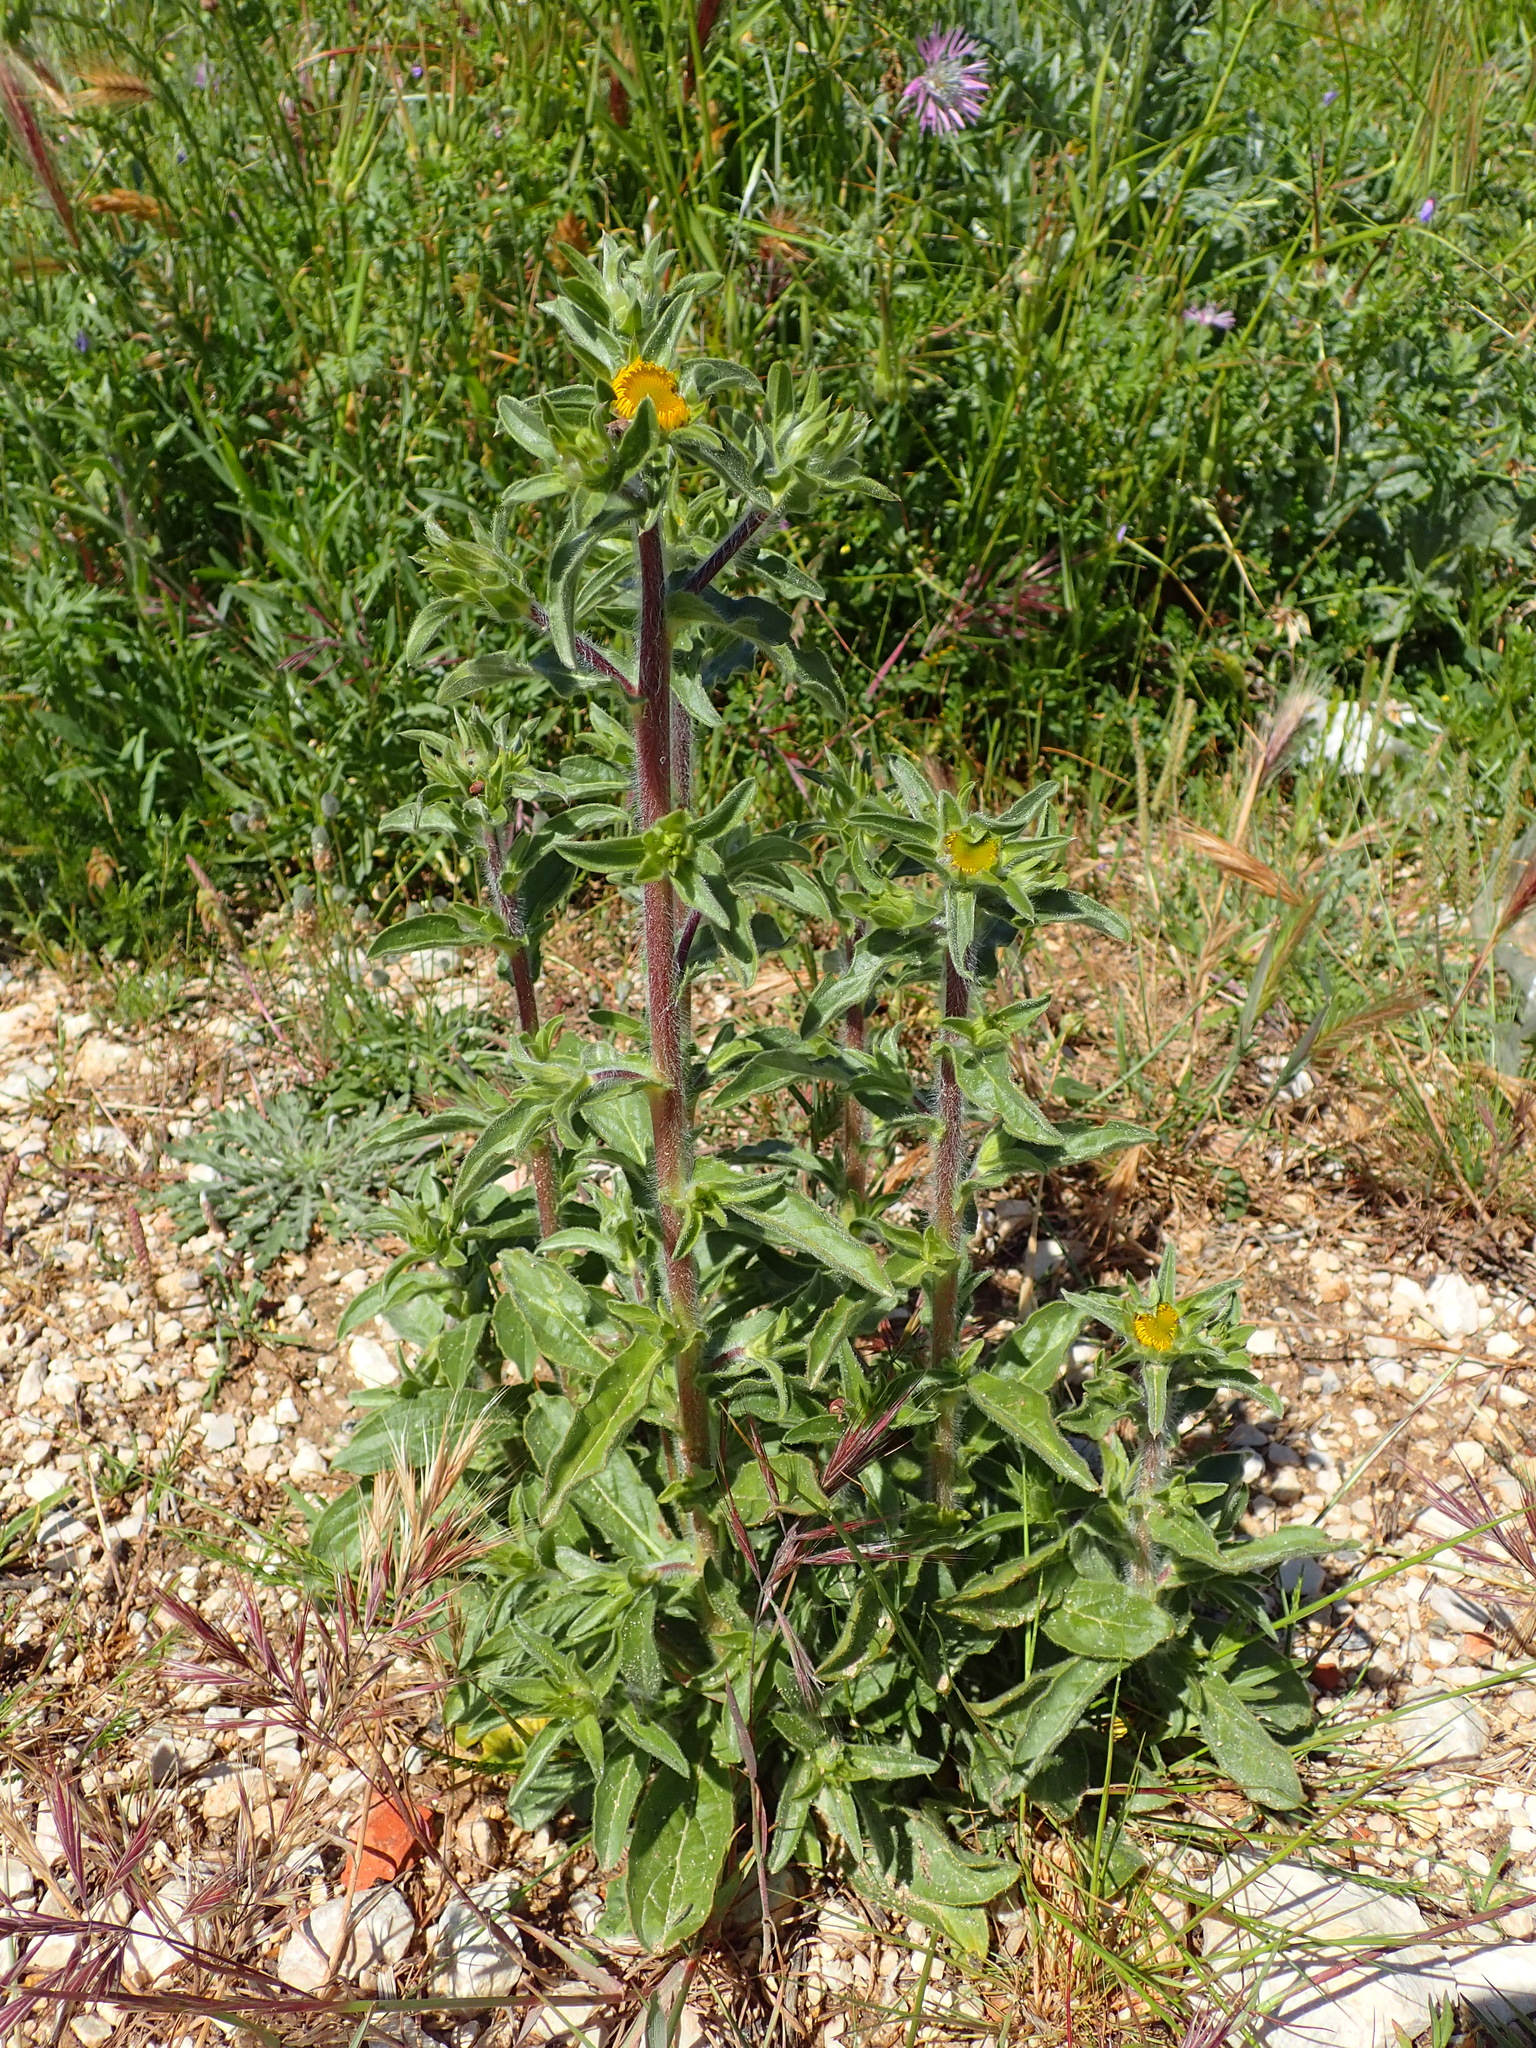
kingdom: Plantae
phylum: Tracheophyta
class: Magnoliopsida
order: Asterales
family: Asteraceae
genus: Pallenis
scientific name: Pallenis spinosa
